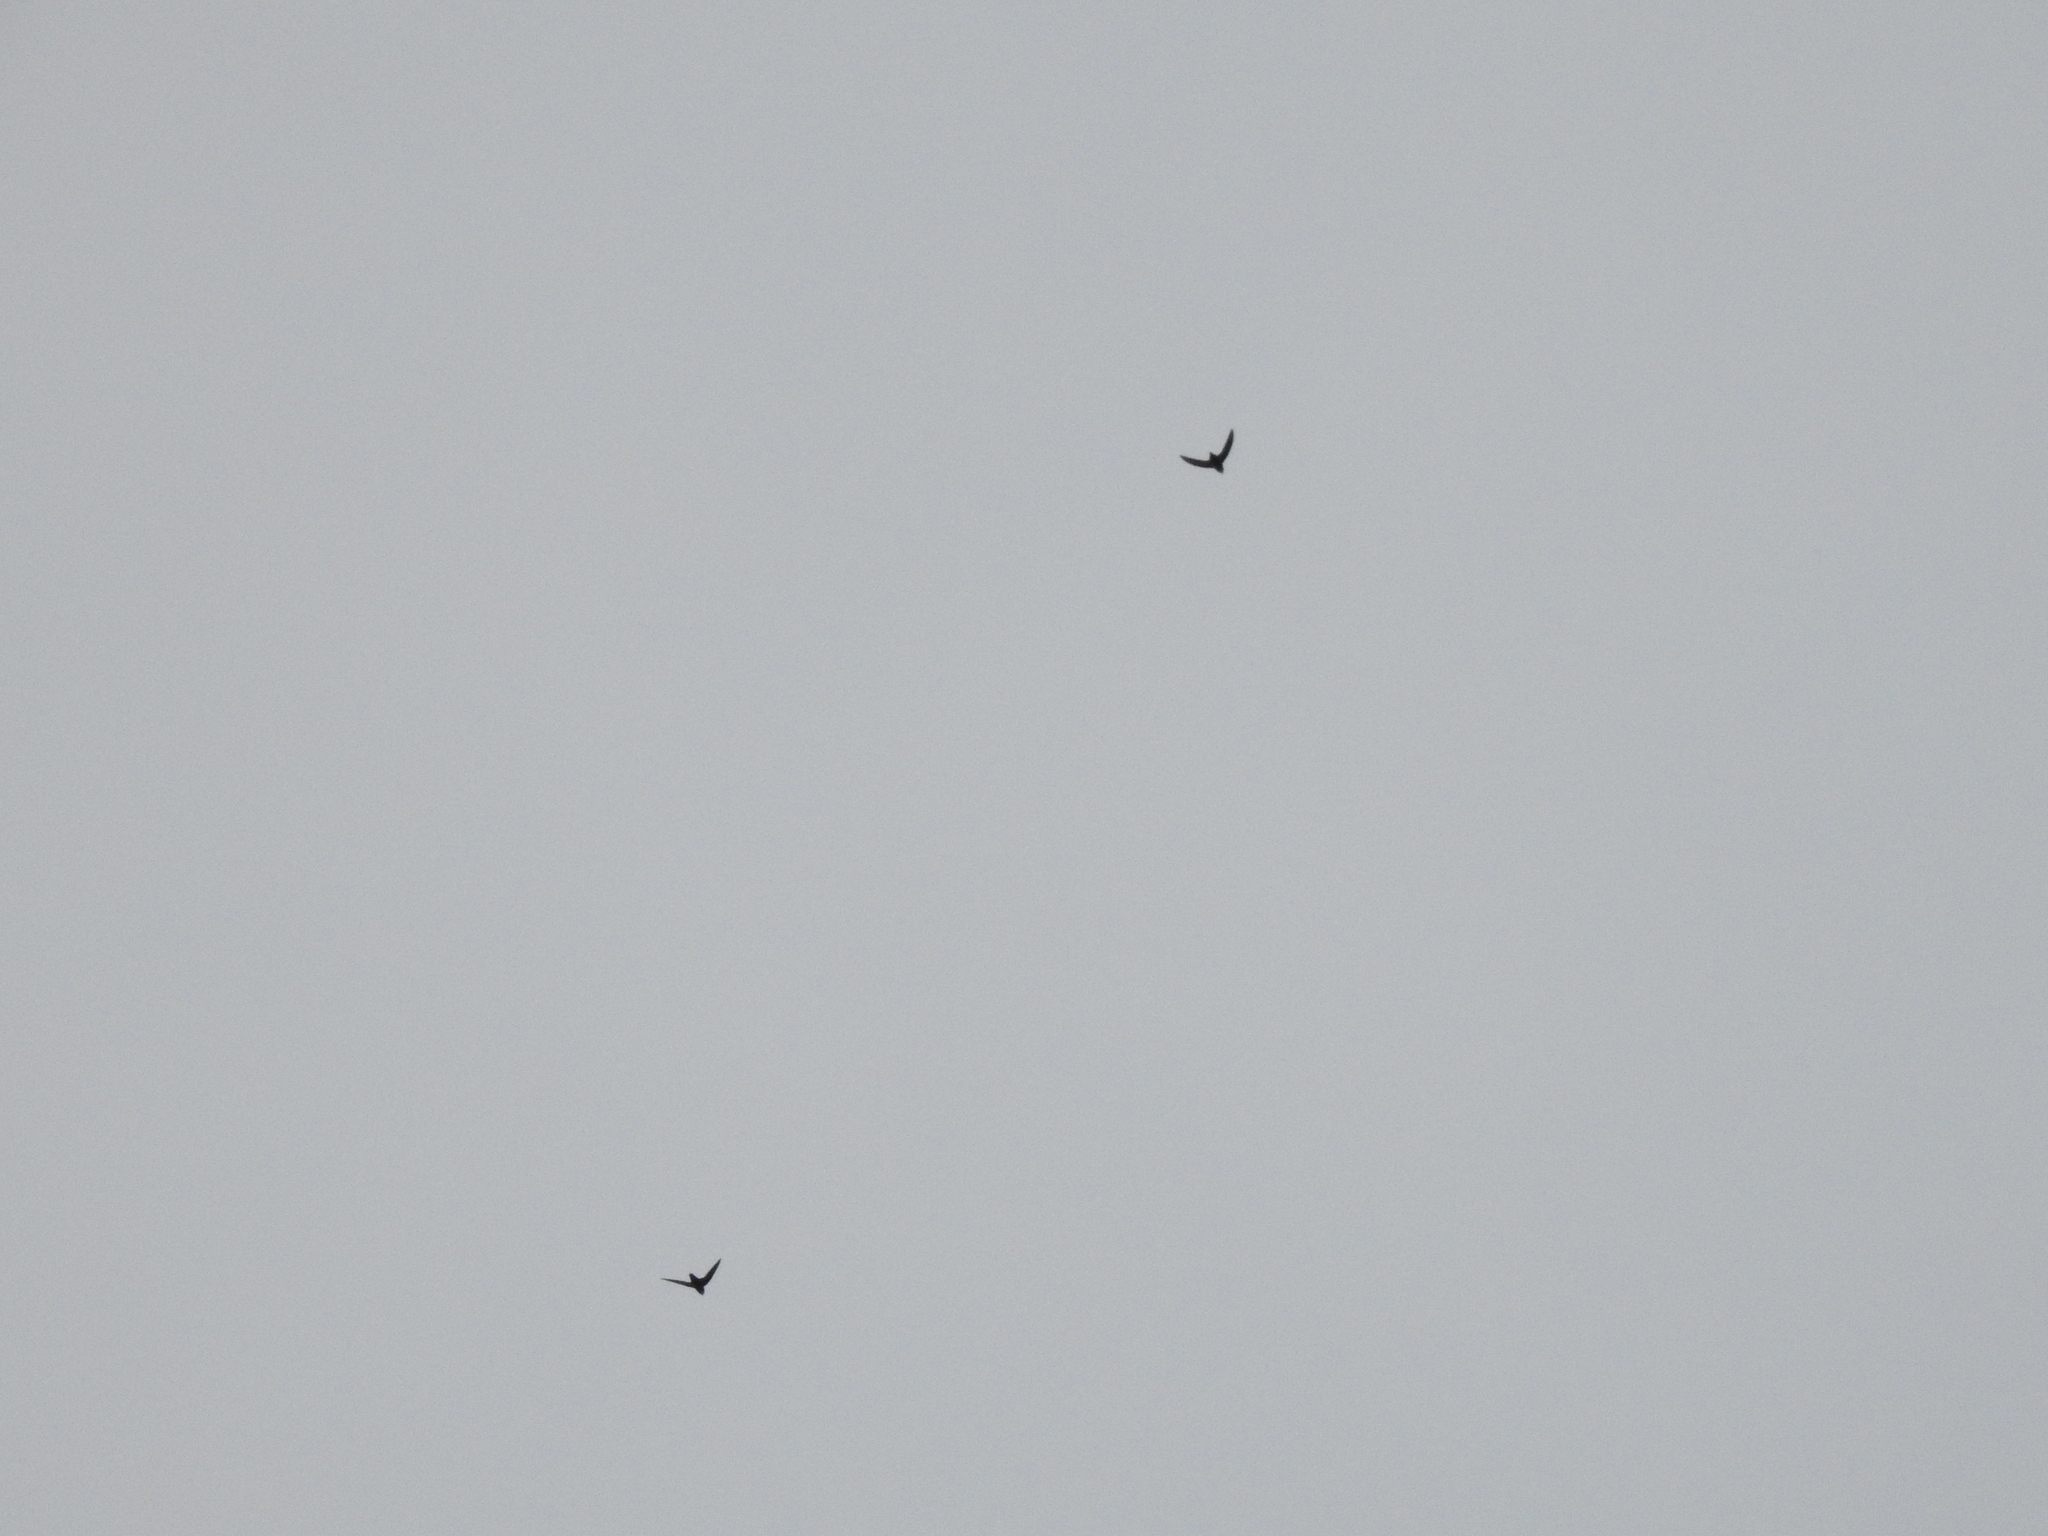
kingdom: Animalia
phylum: Chordata
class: Aves
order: Apodiformes
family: Apodidae
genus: Chaetura
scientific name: Chaetura pelagica
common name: Chimney swift
